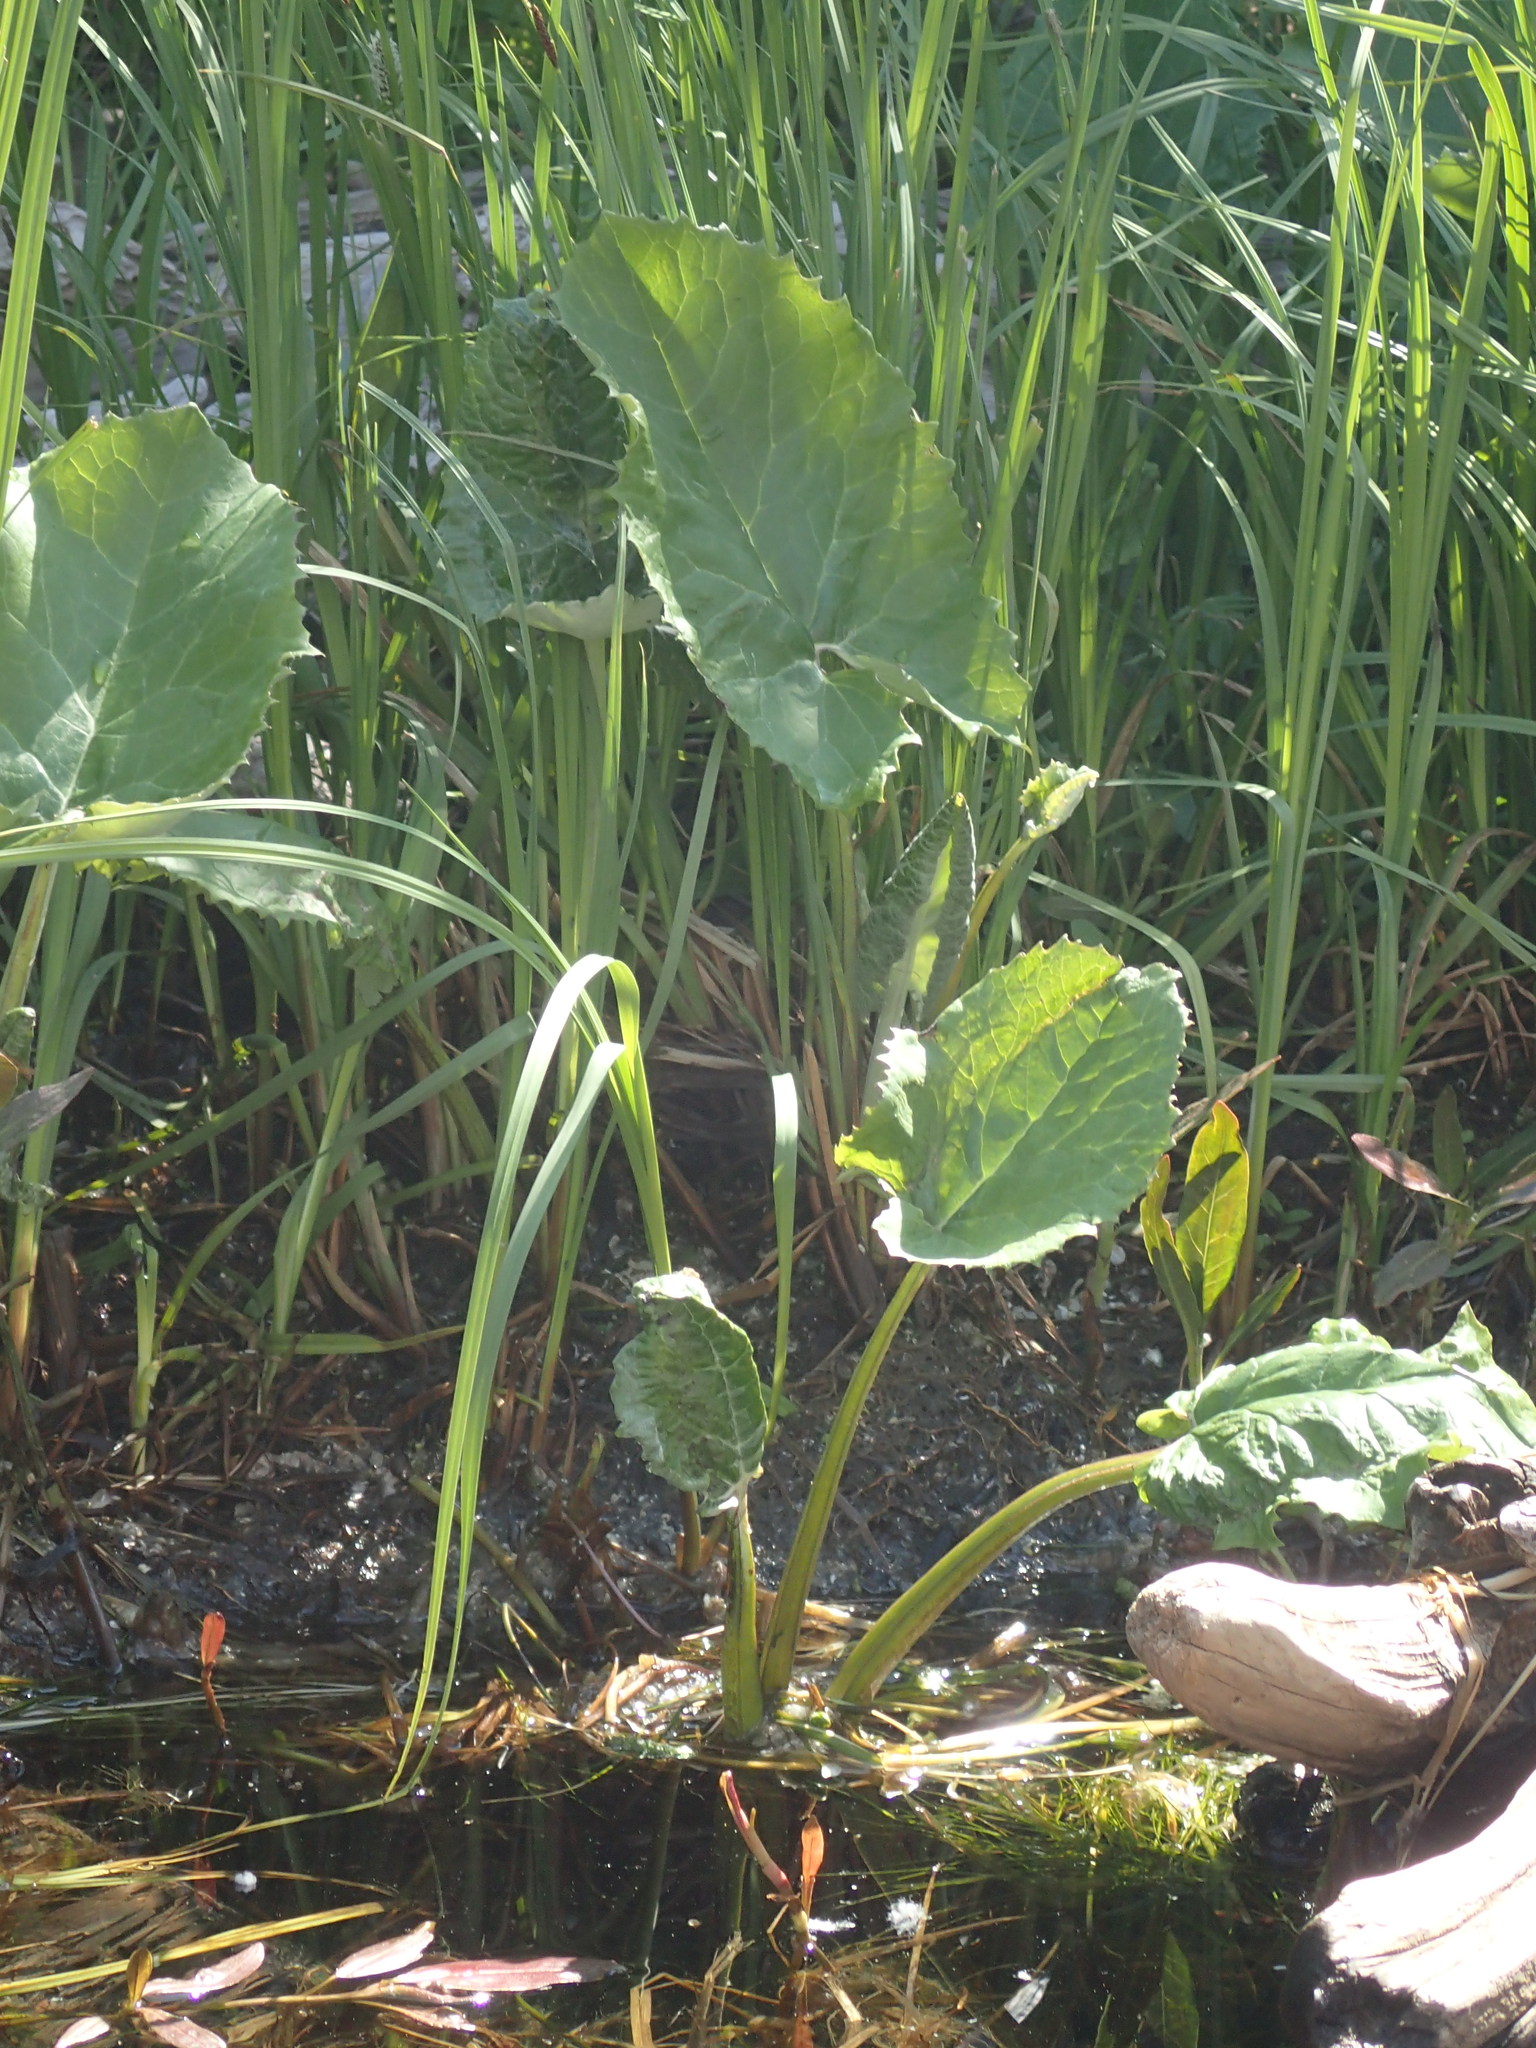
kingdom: Plantae
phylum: Tracheophyta
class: Magnoliopsida
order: Asterales
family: Asteraceae
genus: Petasites
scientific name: Petasites frigidus
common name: Arctic butterbur
